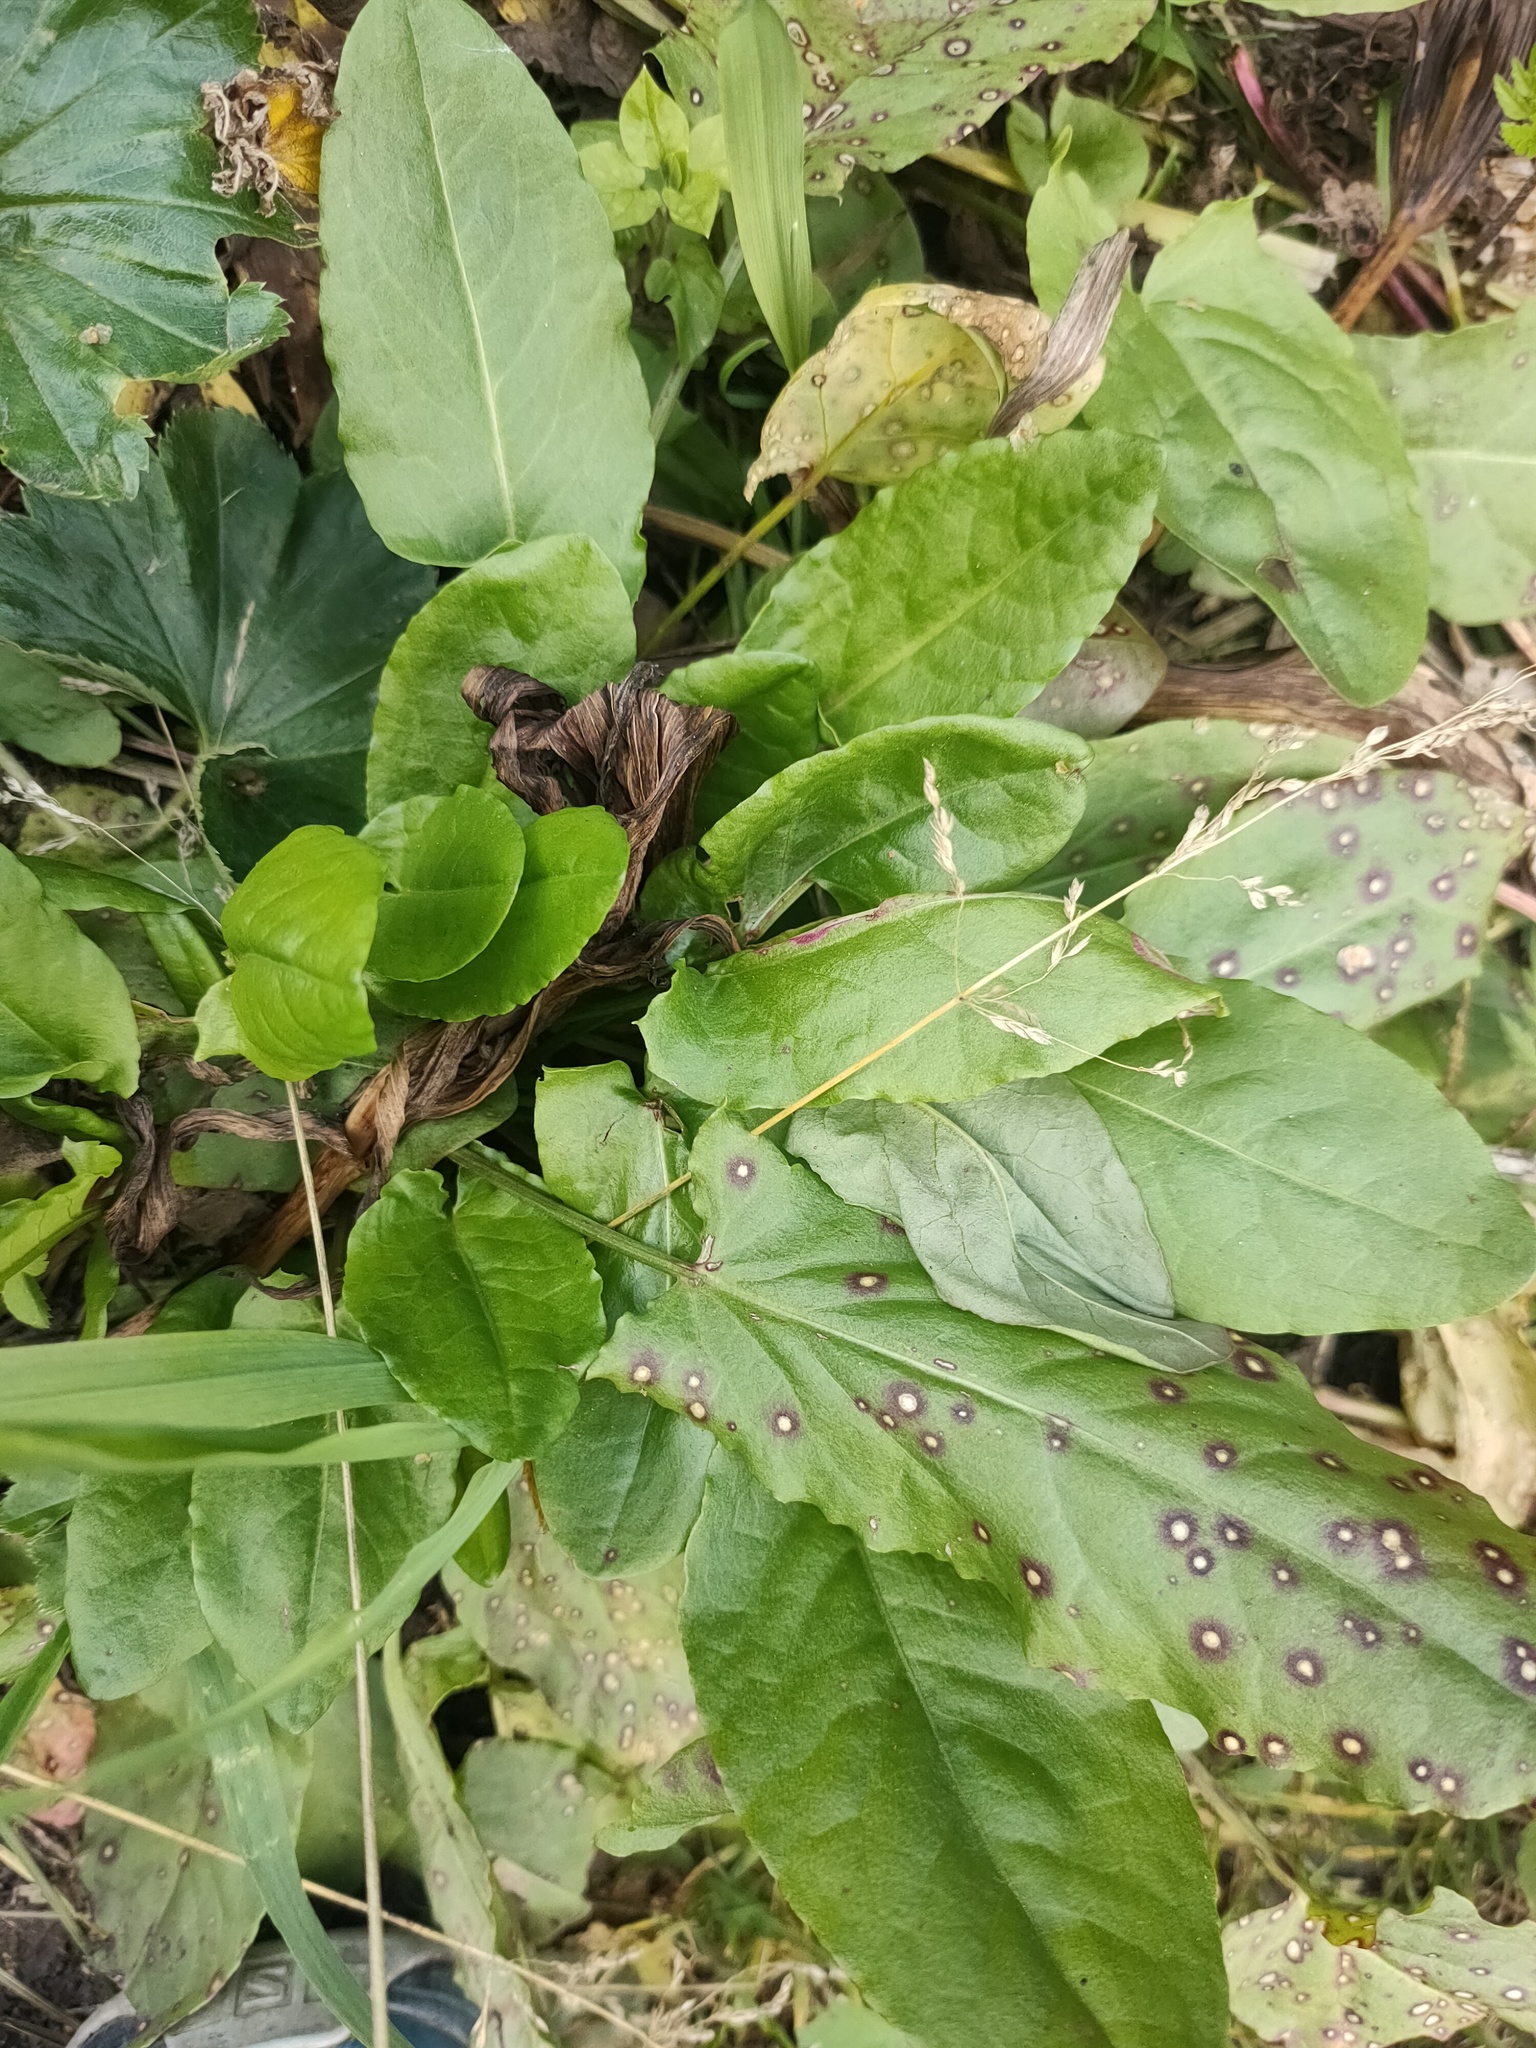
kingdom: Plantae
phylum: Tracheophyta
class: Magnoliopsida
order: Caryophyllales
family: Polygonaceae
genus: Rumex
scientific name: Rumex acetosa
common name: Garden sorrel
